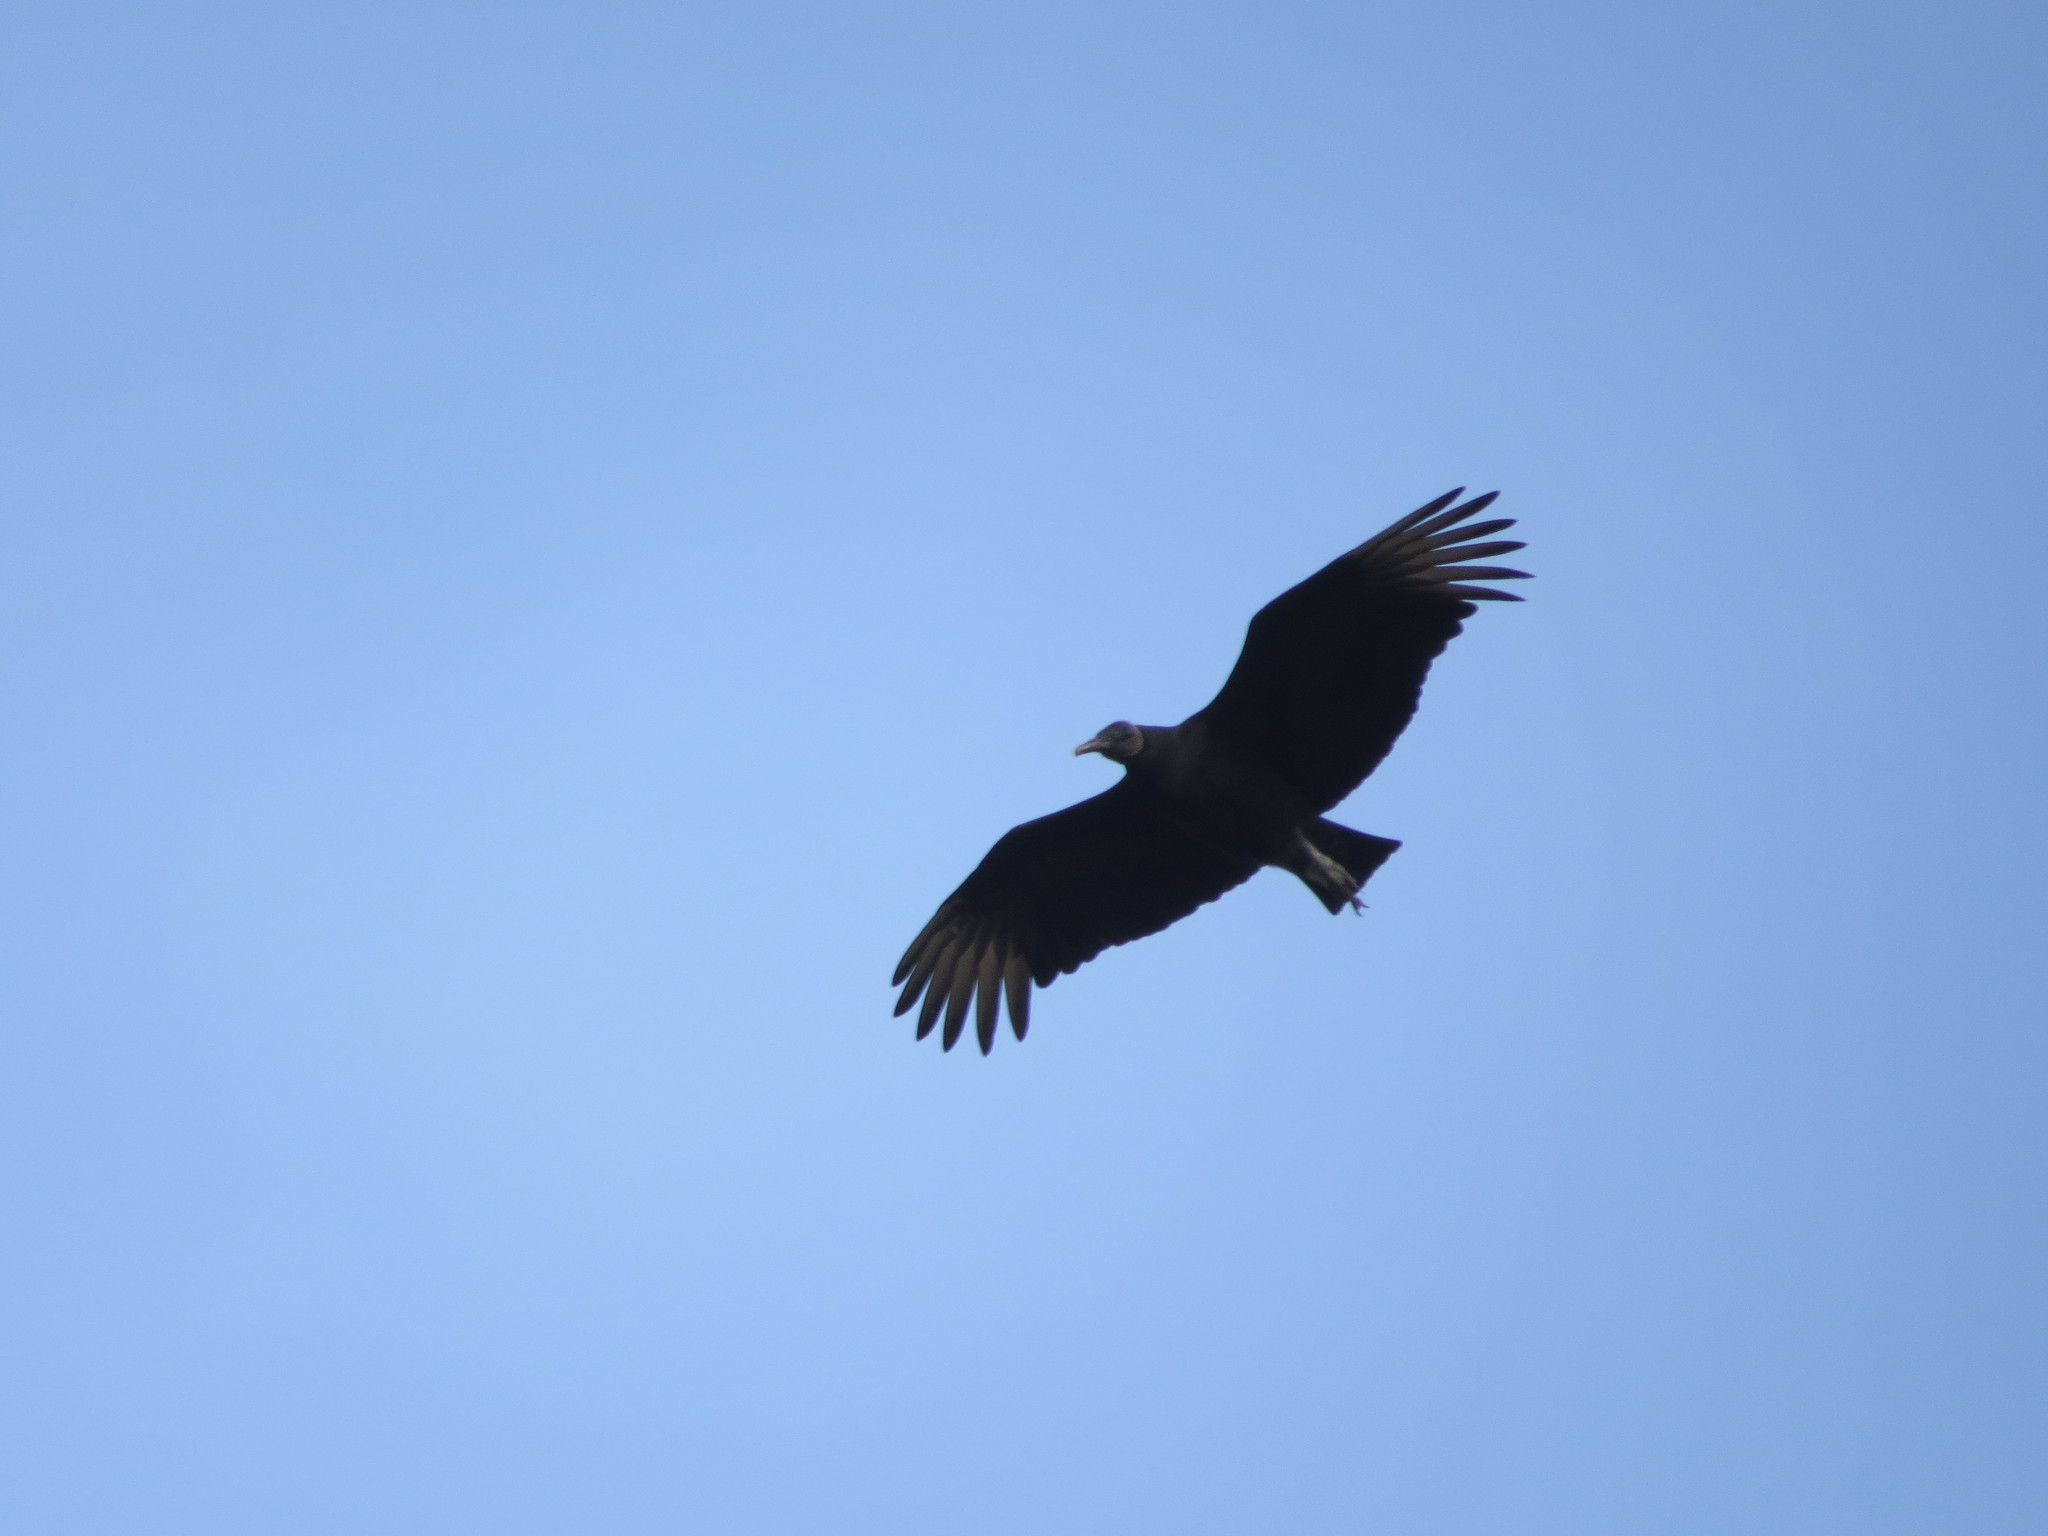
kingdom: Animalia
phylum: Chordata
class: Aves
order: Accipitriformes
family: Cathartidae
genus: Coragyps
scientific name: Coragyps atratus
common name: Black vulture
